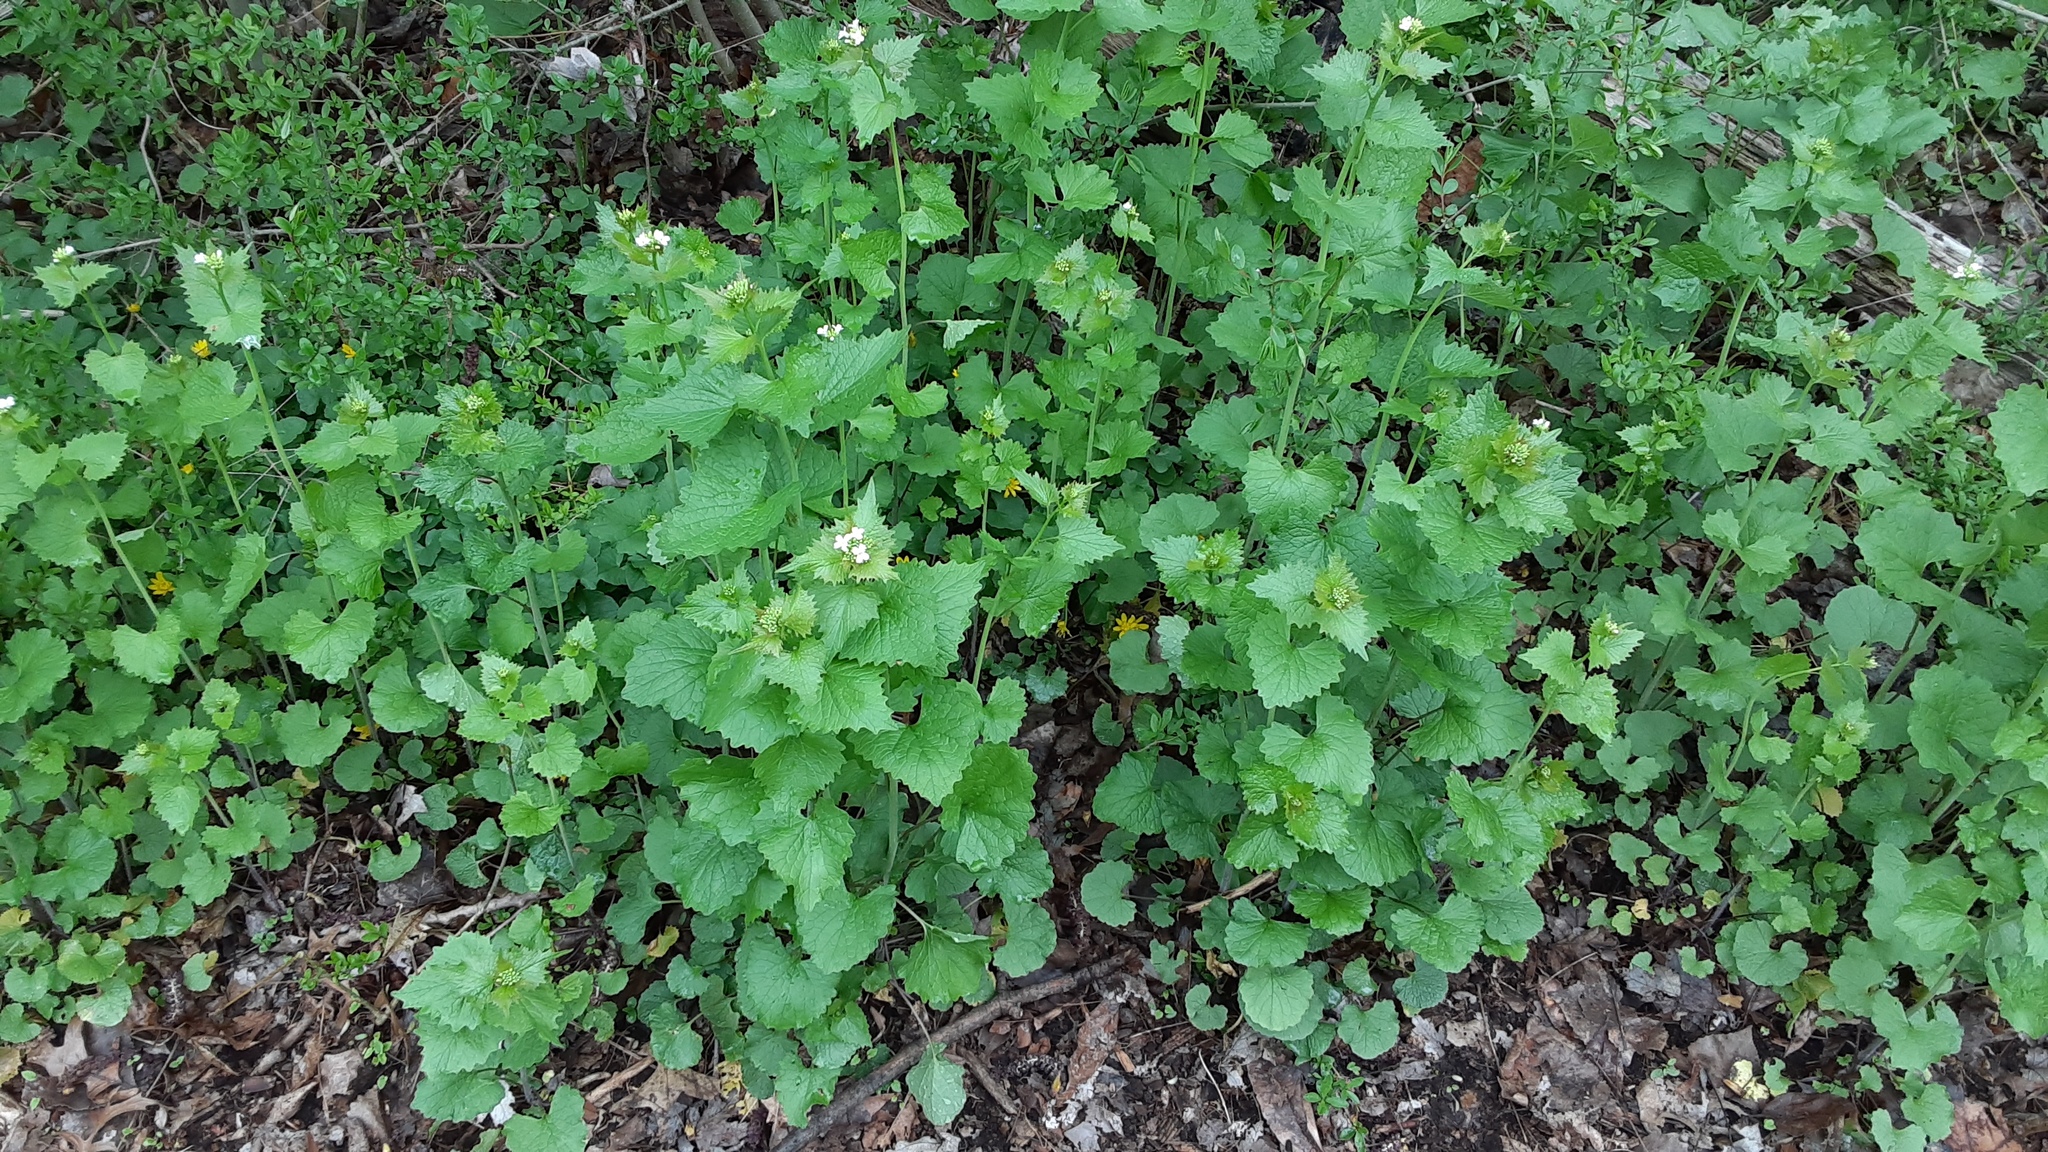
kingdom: Plantae
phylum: Tracheophyta
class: Magnoliopsida
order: Brassicales
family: Brassicaceae
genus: Alliaria
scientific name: Alliaria petiolata
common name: Garlic mustard
